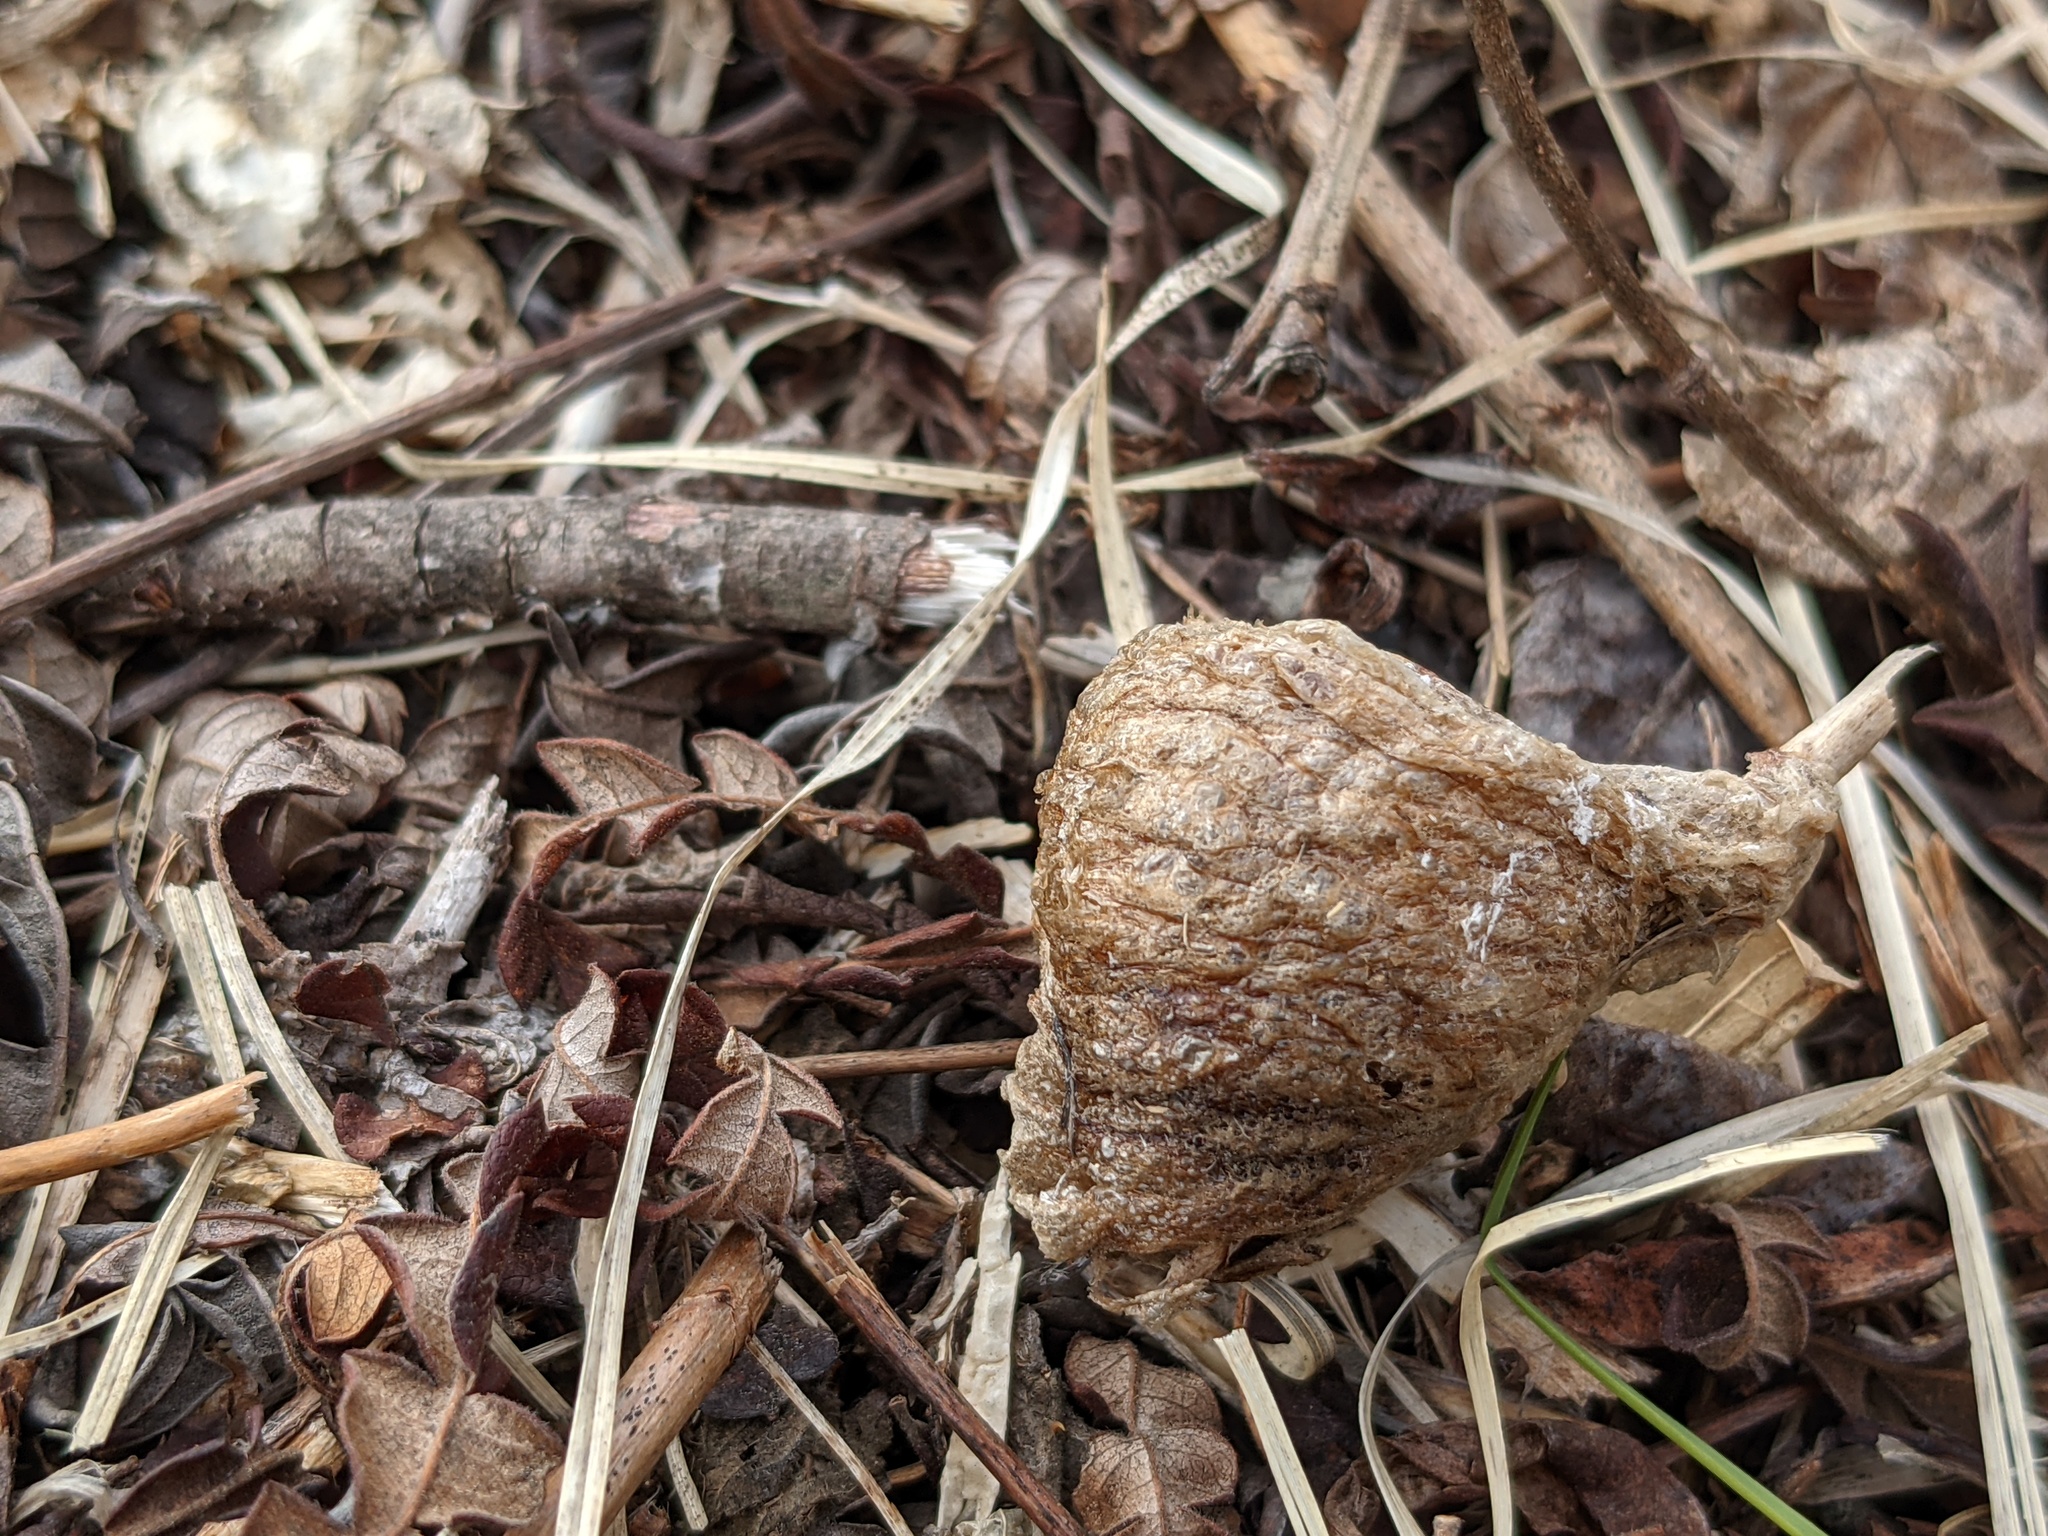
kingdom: Animalia
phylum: Arthropoda
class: Insecta
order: Mantodea
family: Mantidae
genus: Tenodera
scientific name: Tenodera sinensis
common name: Chinese mantis
